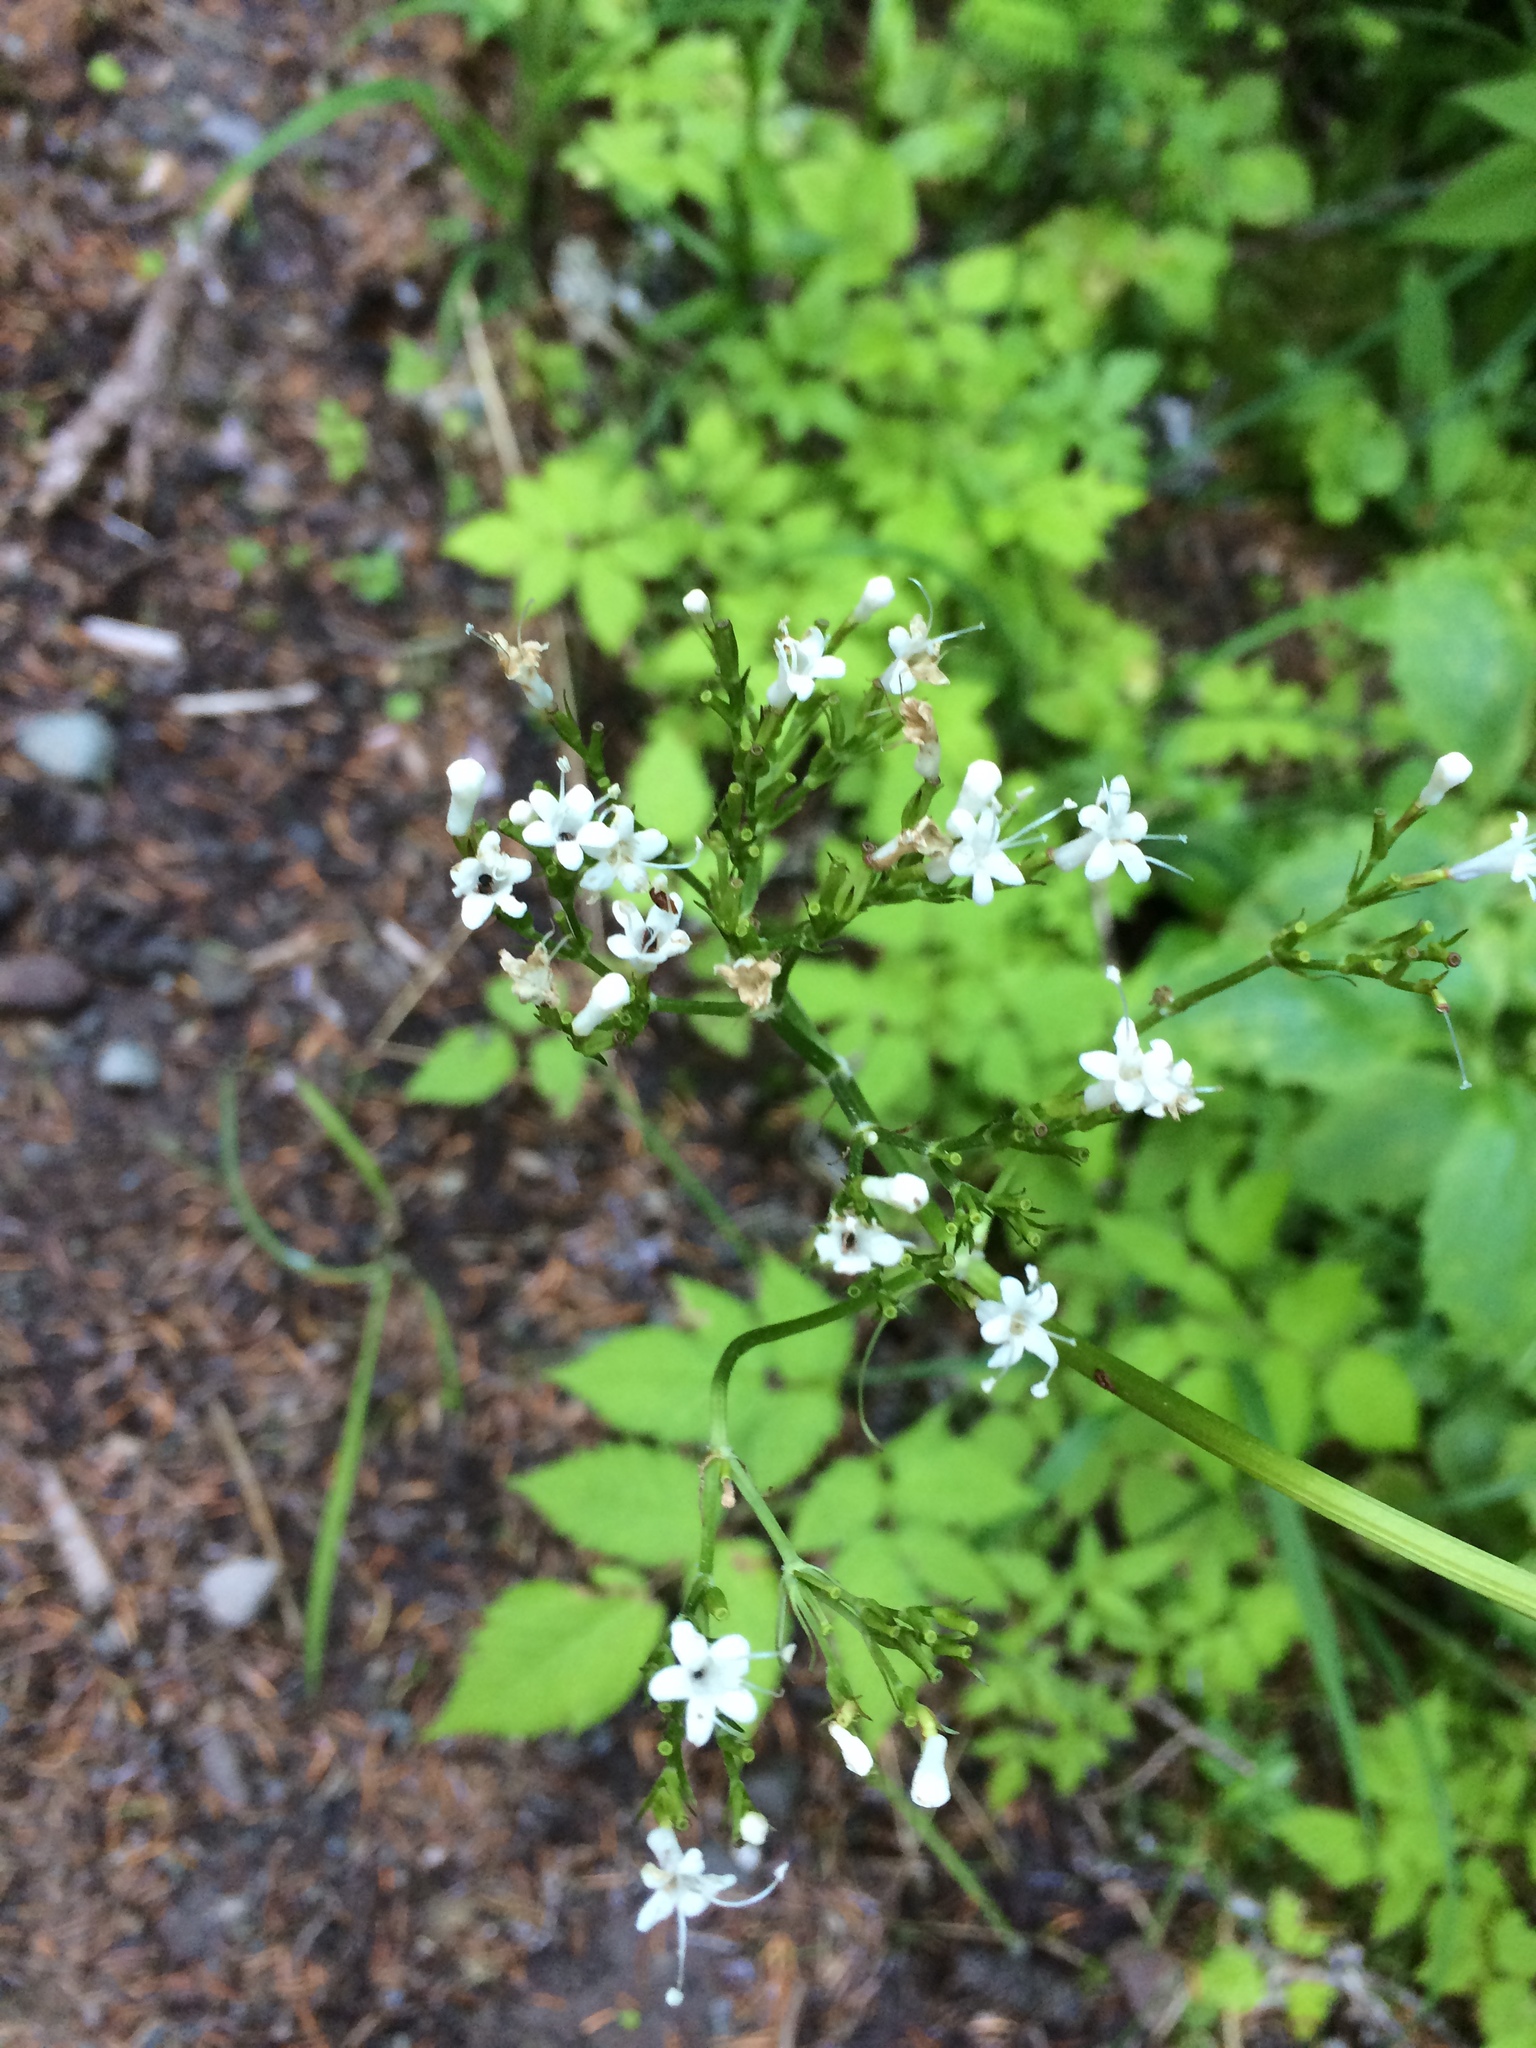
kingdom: Plantae
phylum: Tracheophyta
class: Magnoliopsida
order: Dipsacales
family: Caprifoliaceae
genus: Valeriana
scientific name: Valeriana sitchensis
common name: Pacific valerian
